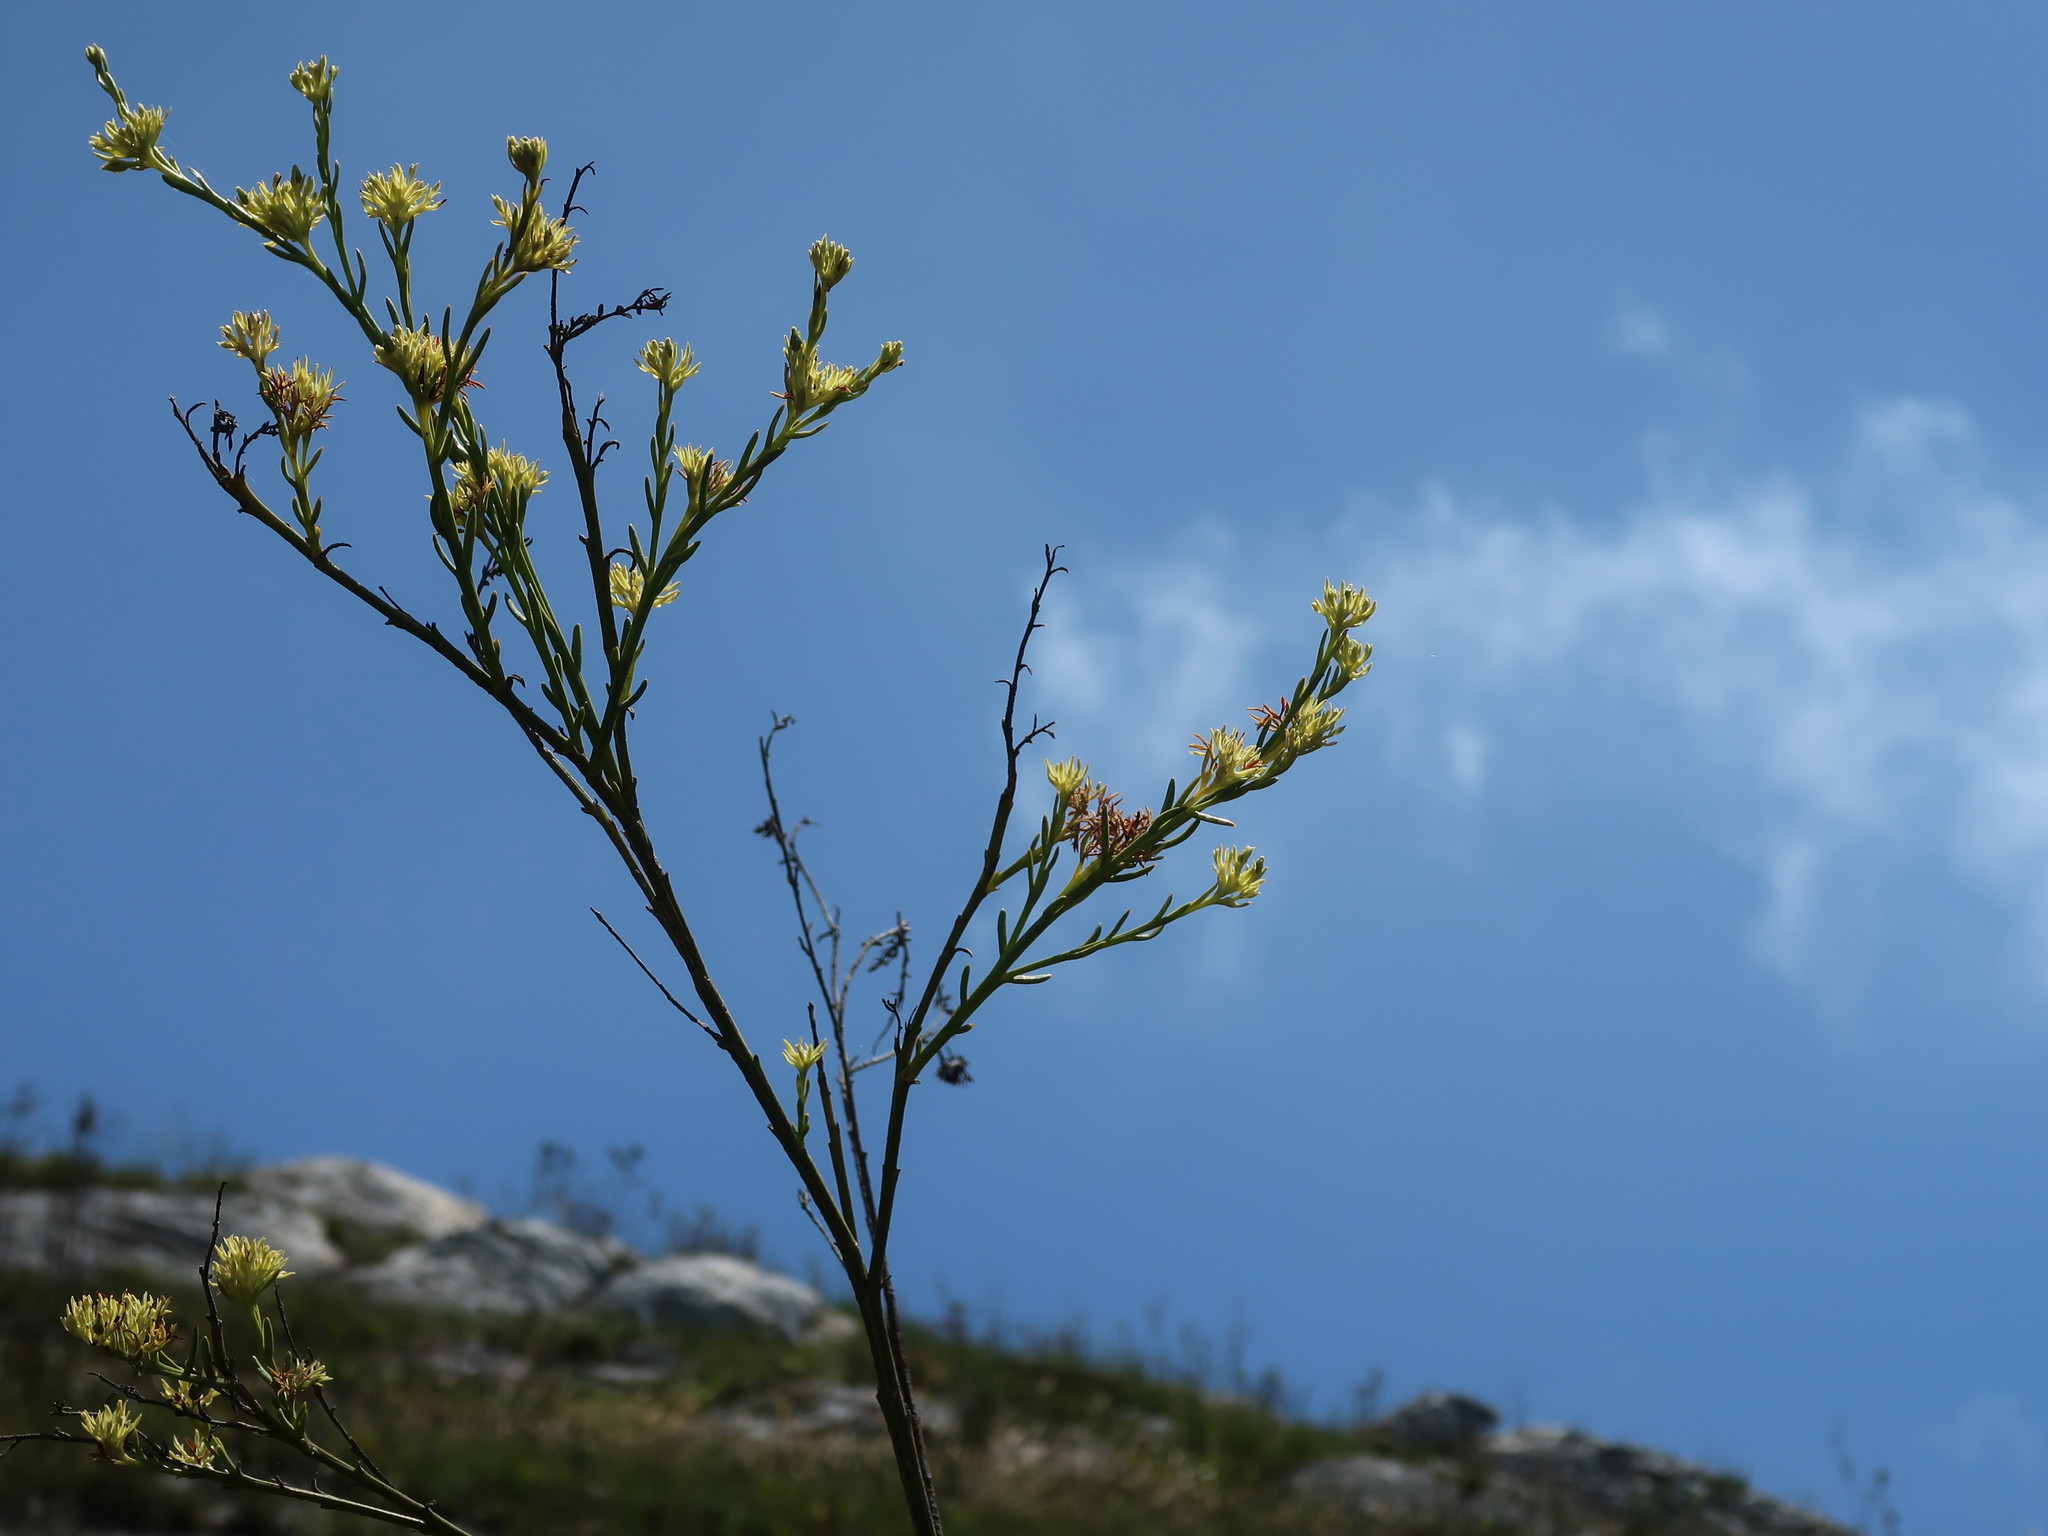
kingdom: Plantae
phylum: Tracheophyta
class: Magnoliopsida
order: Santalales
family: Thesiaceae
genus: Thesium
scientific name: Thesium strictum
